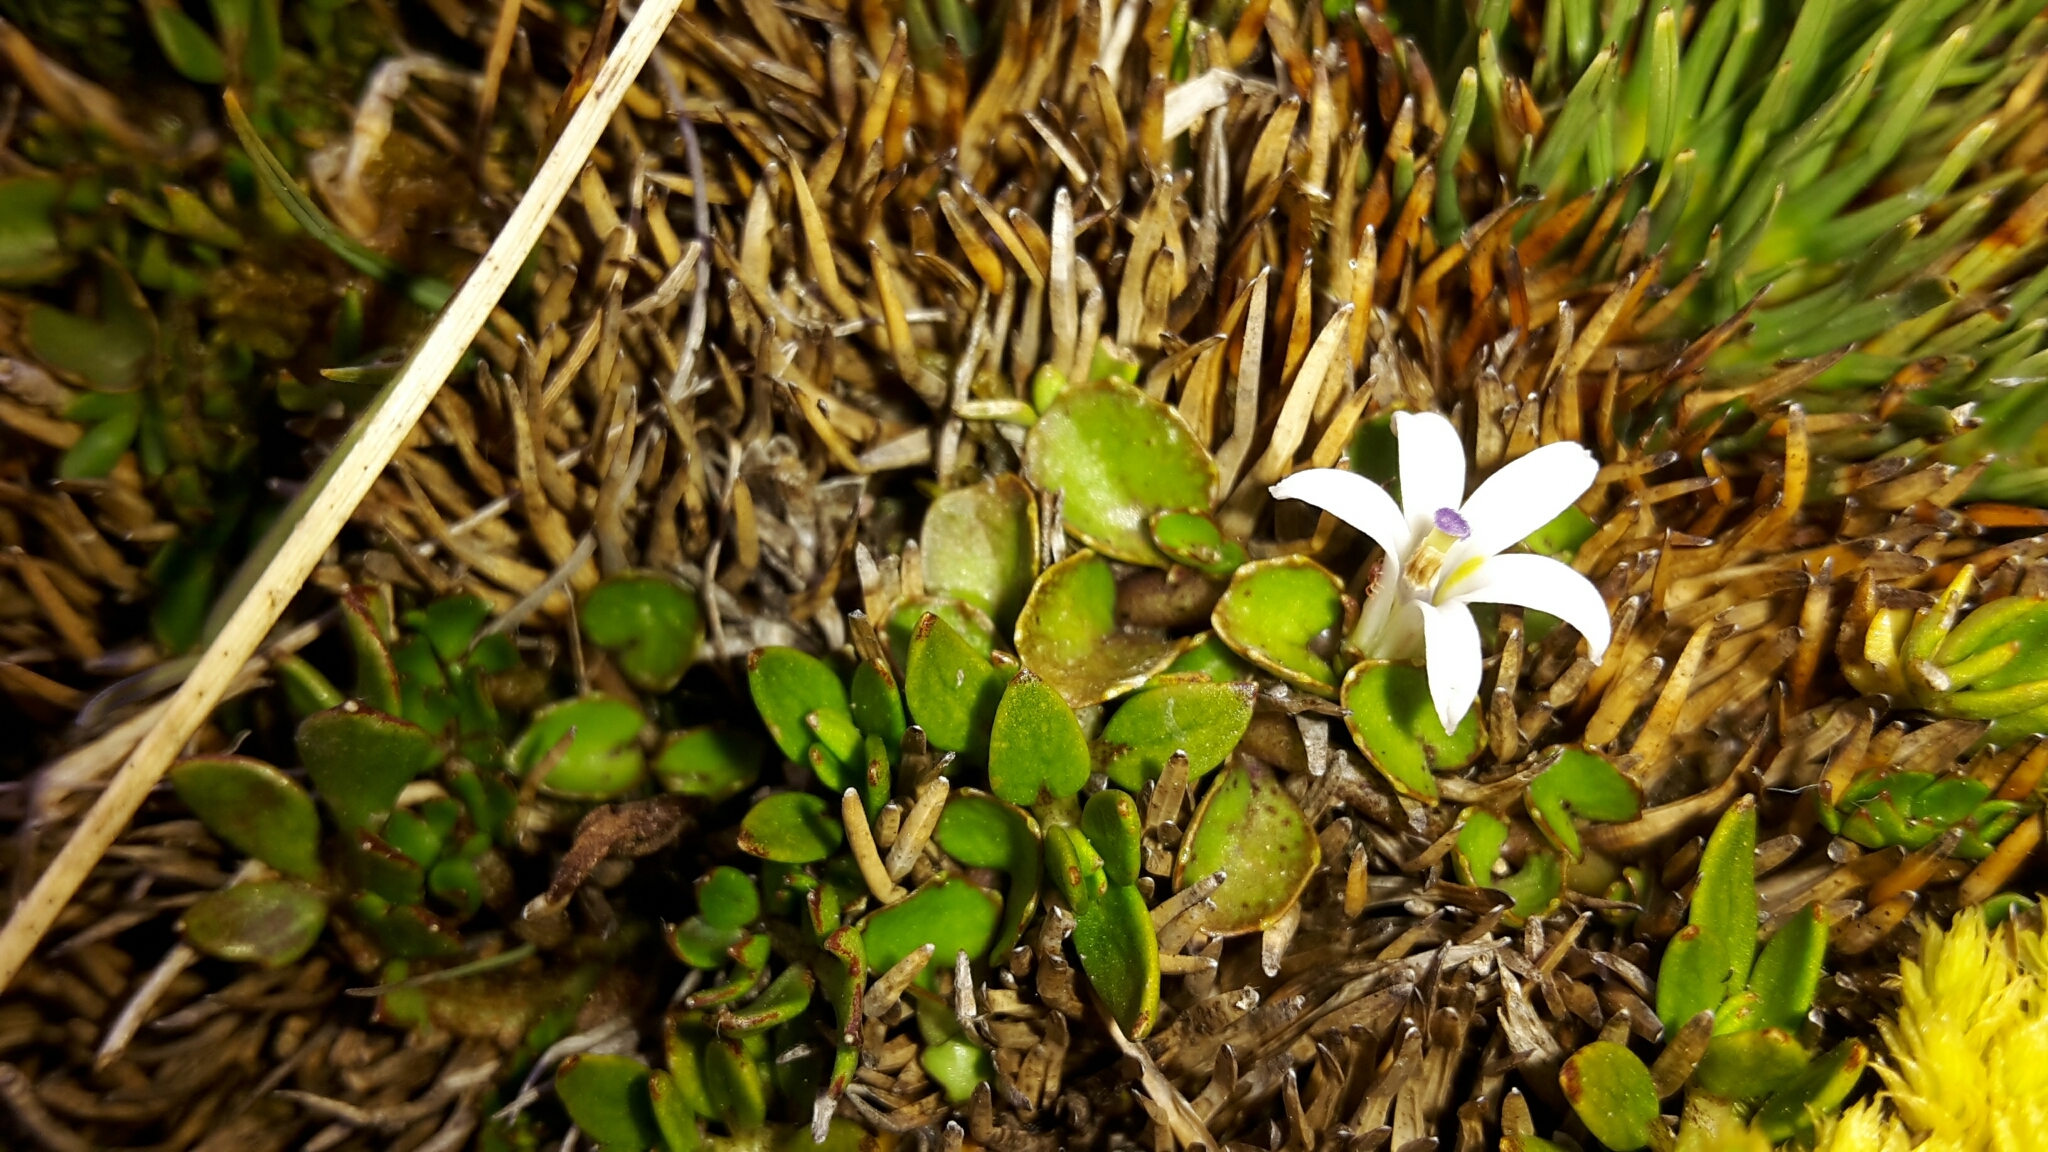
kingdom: Plantae
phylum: Tracheophyta
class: Magnoliopsida
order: Asterales
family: Campanulaceae
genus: Lobelia
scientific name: Lobelia glaberrima
